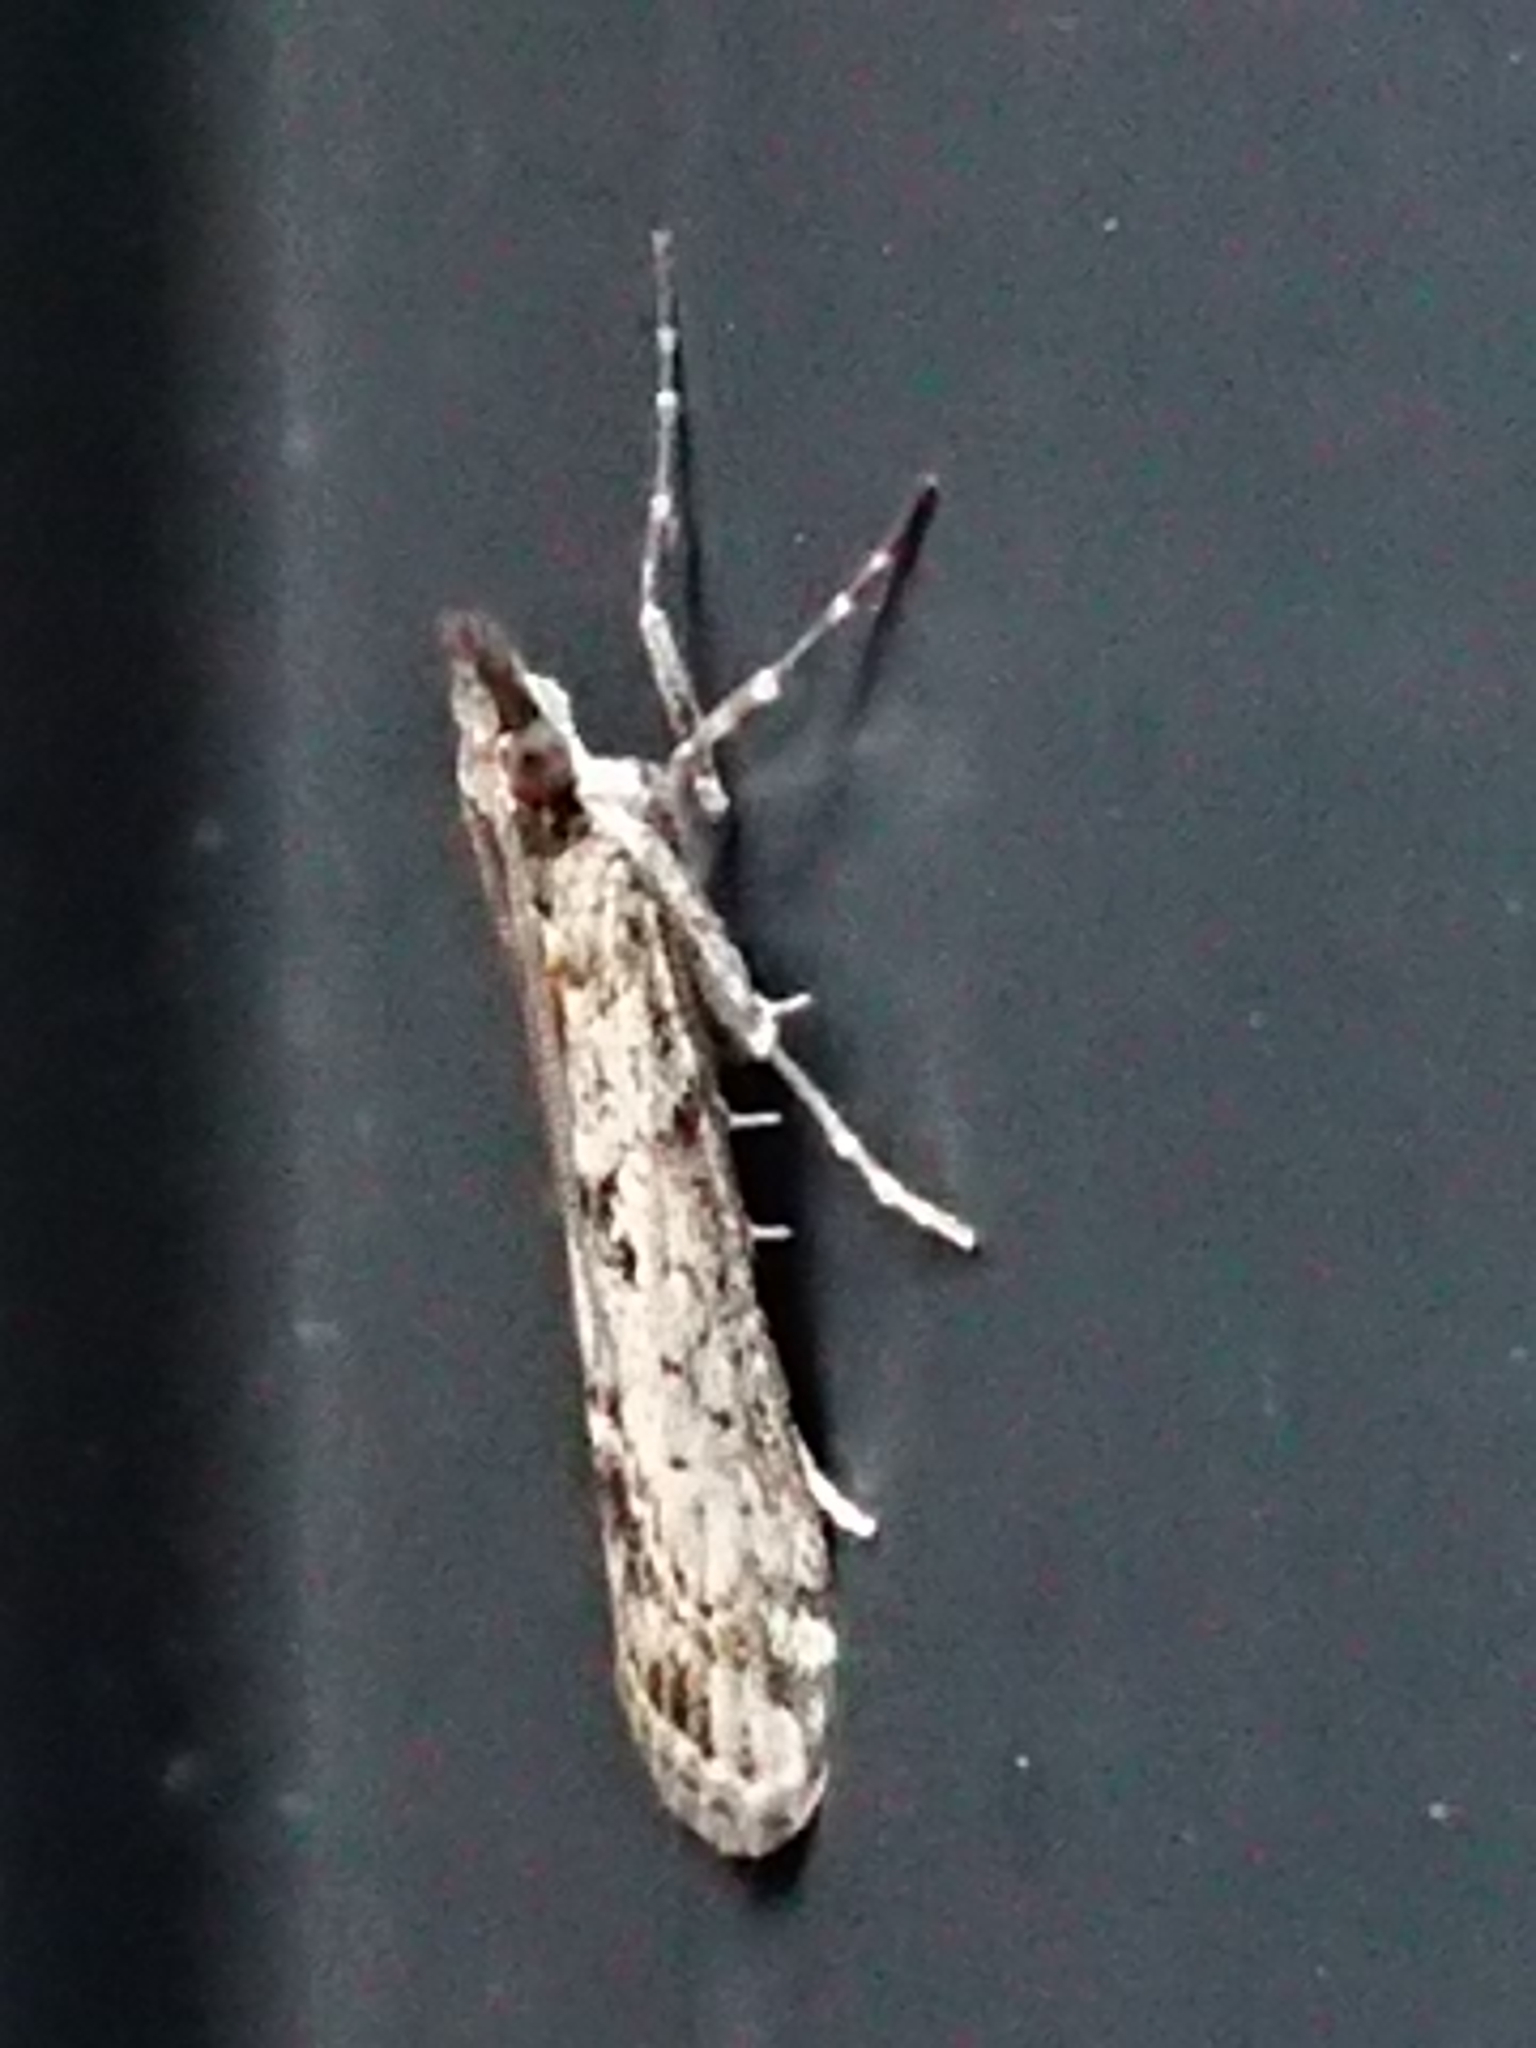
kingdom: Animalia
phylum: Arthropoda
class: Insecta
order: Lepidoptera
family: Crambidae
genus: Eudonia
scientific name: Eudonia leptalea
